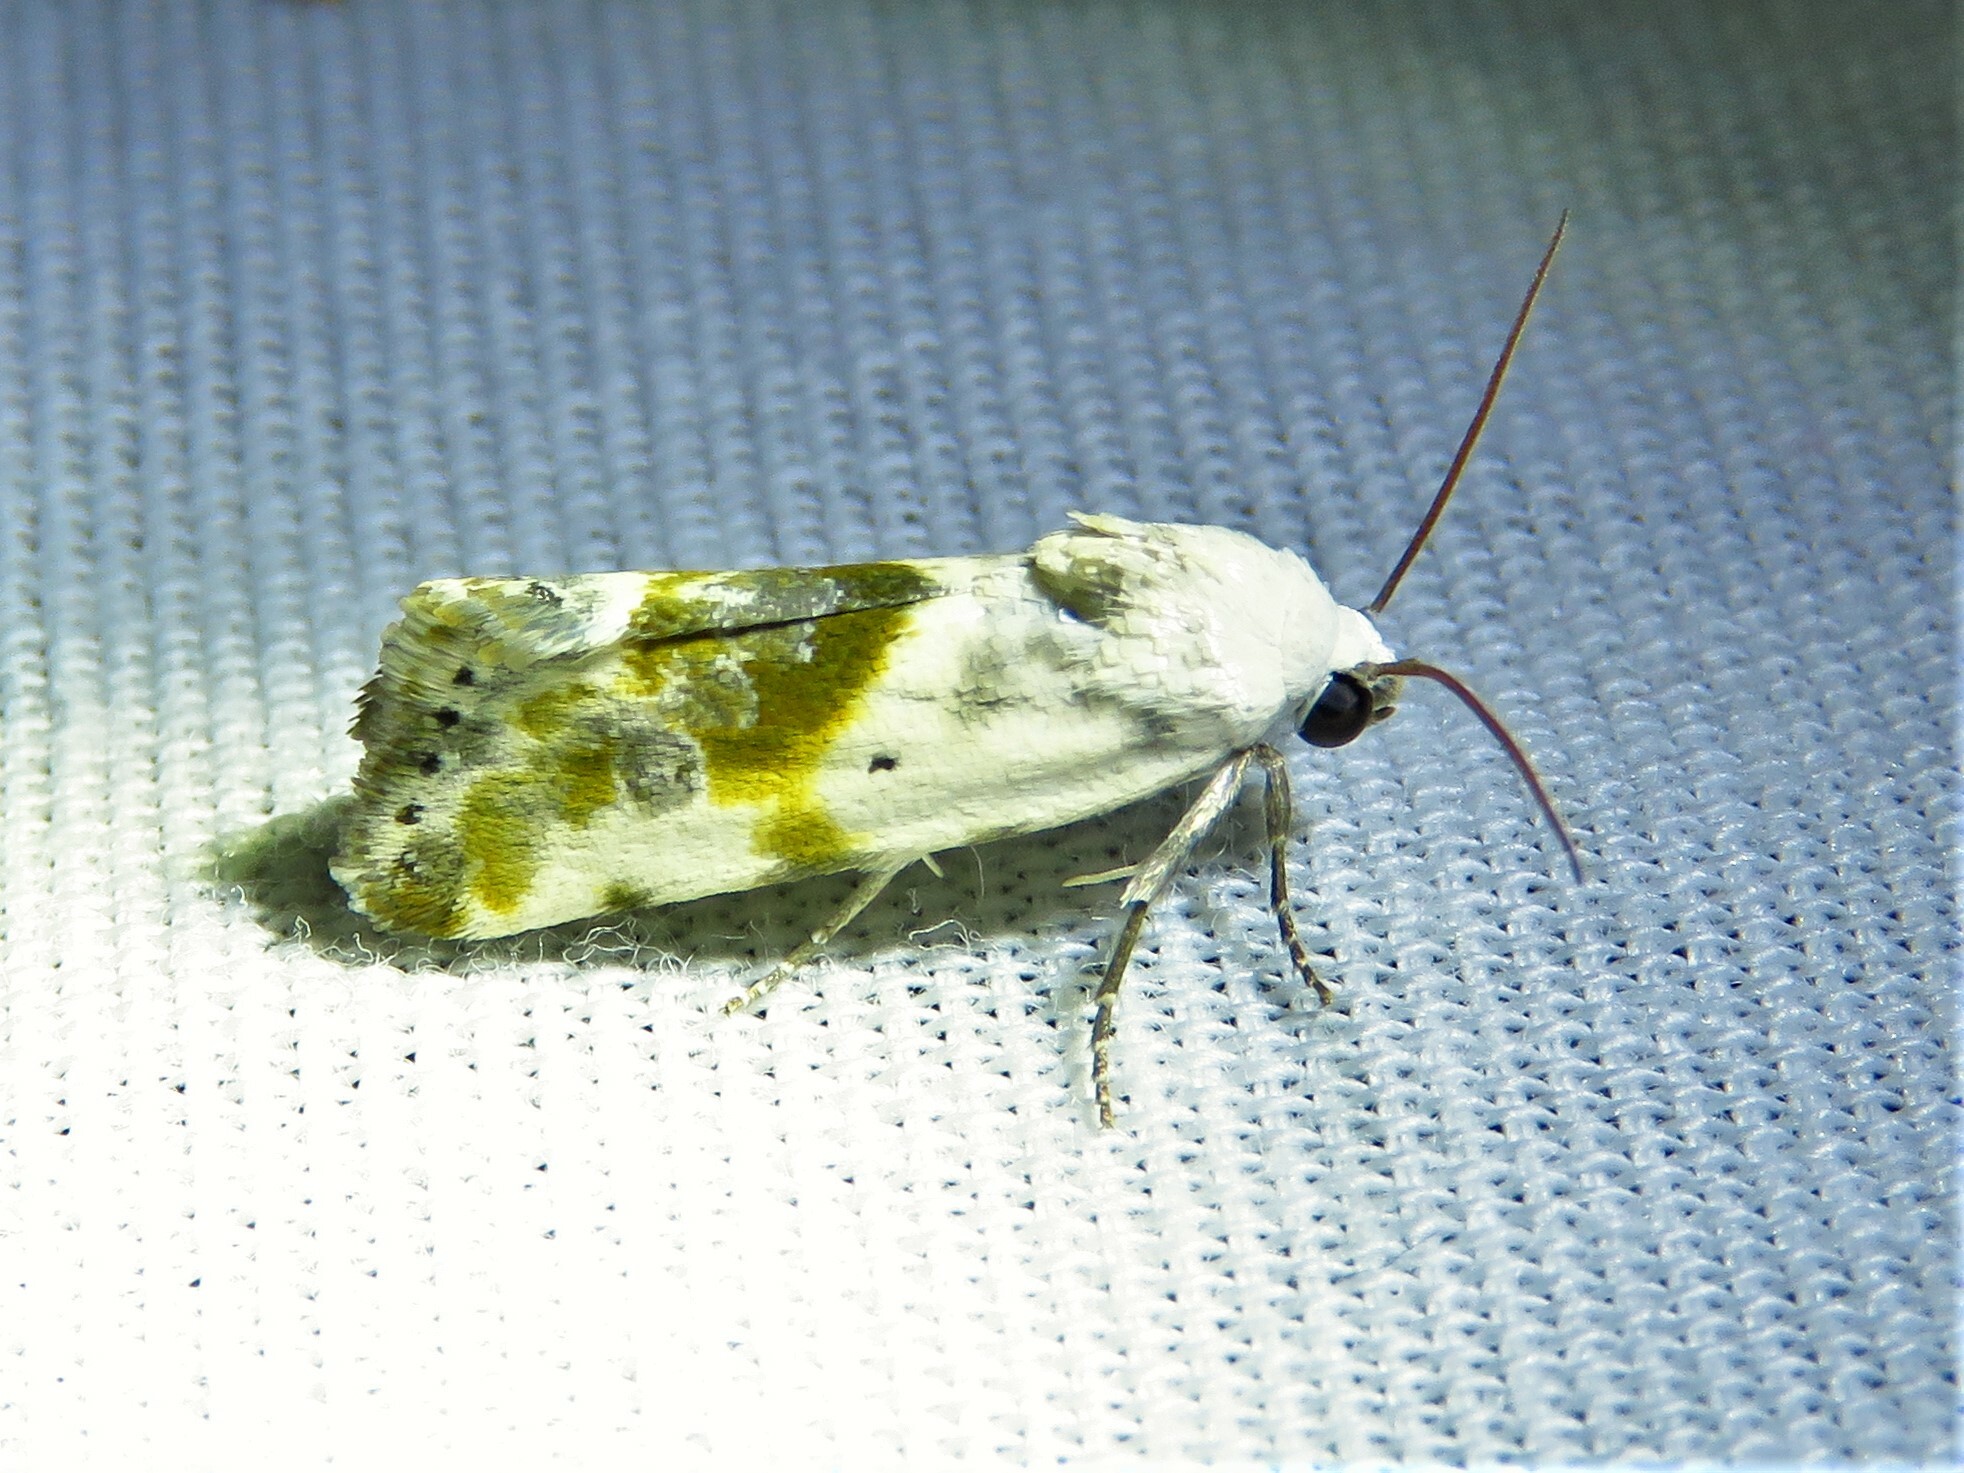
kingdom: Animalia
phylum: Arthropoda
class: Insecta
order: Lepidoptera
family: Noctuidae
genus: Acontia
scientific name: Acontia candefacta
